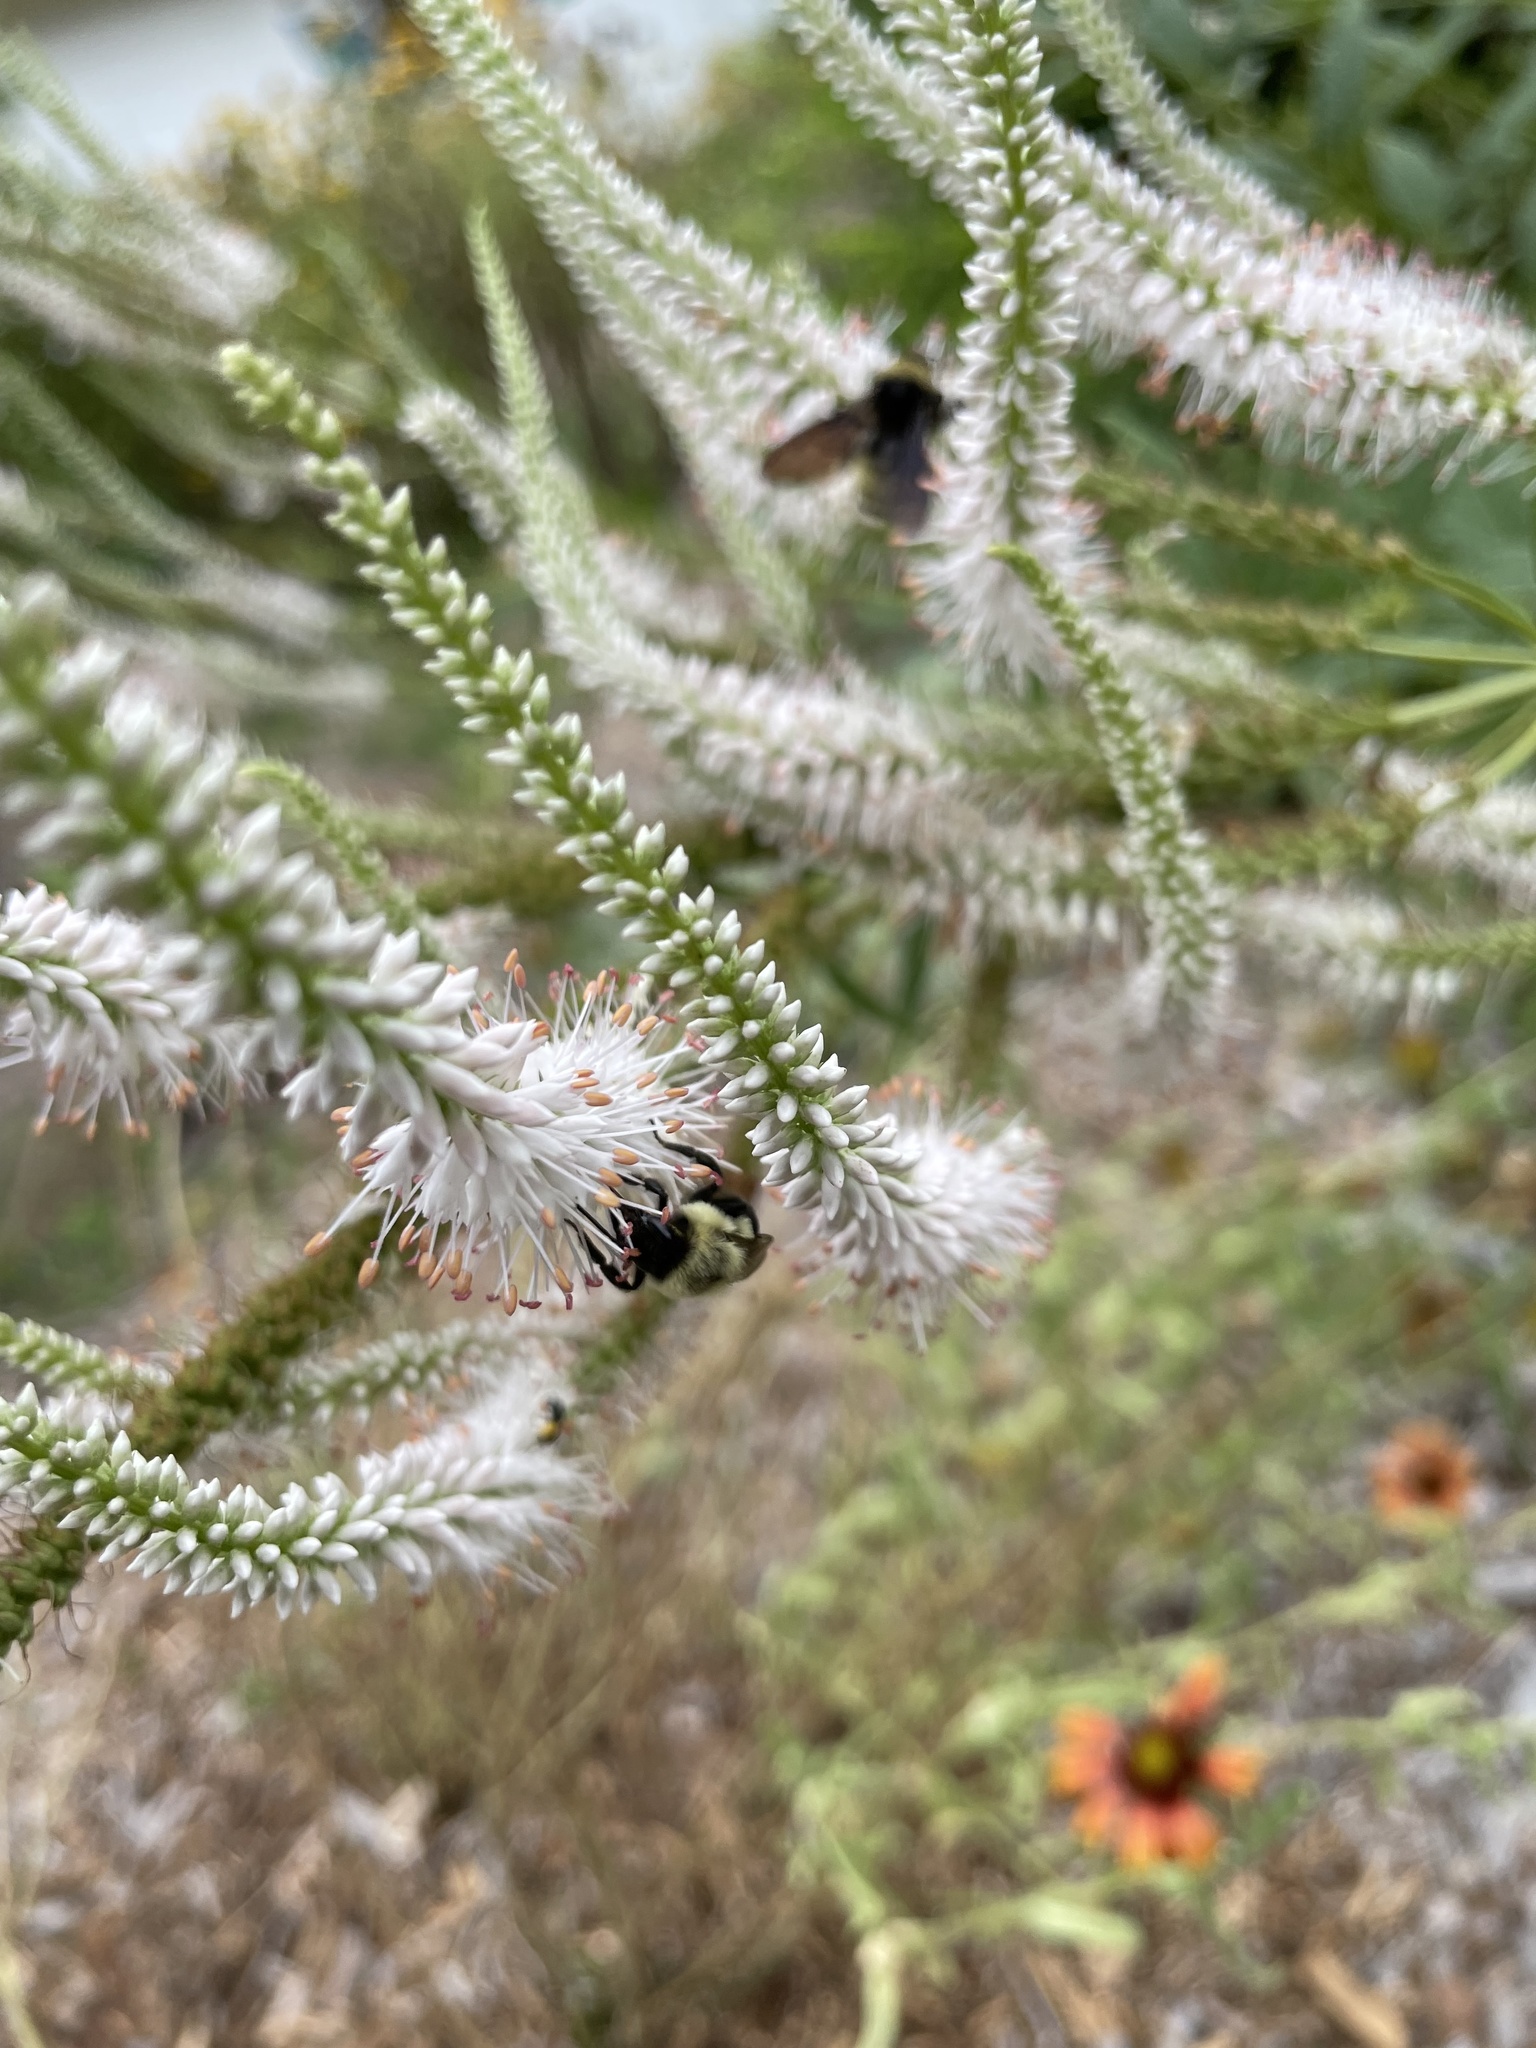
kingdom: Animalia
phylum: Arthropoda
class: Insecta
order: Hymenoptera
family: Apidae
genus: Bombus
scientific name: Bombus impatiens
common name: Common eastern bumble bee
